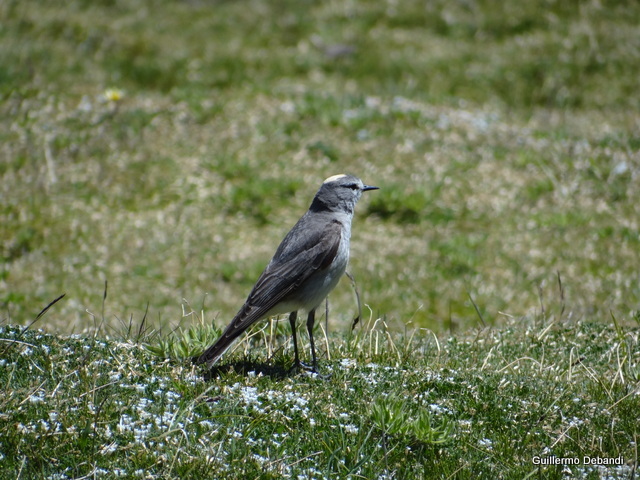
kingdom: Animalia
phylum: Chordata
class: Aves
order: Passeriformes
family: Tyrannidae
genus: Muscisaxicola
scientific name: Muscisaxicola flavinucha
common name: Ochre-naped ground tyrant
